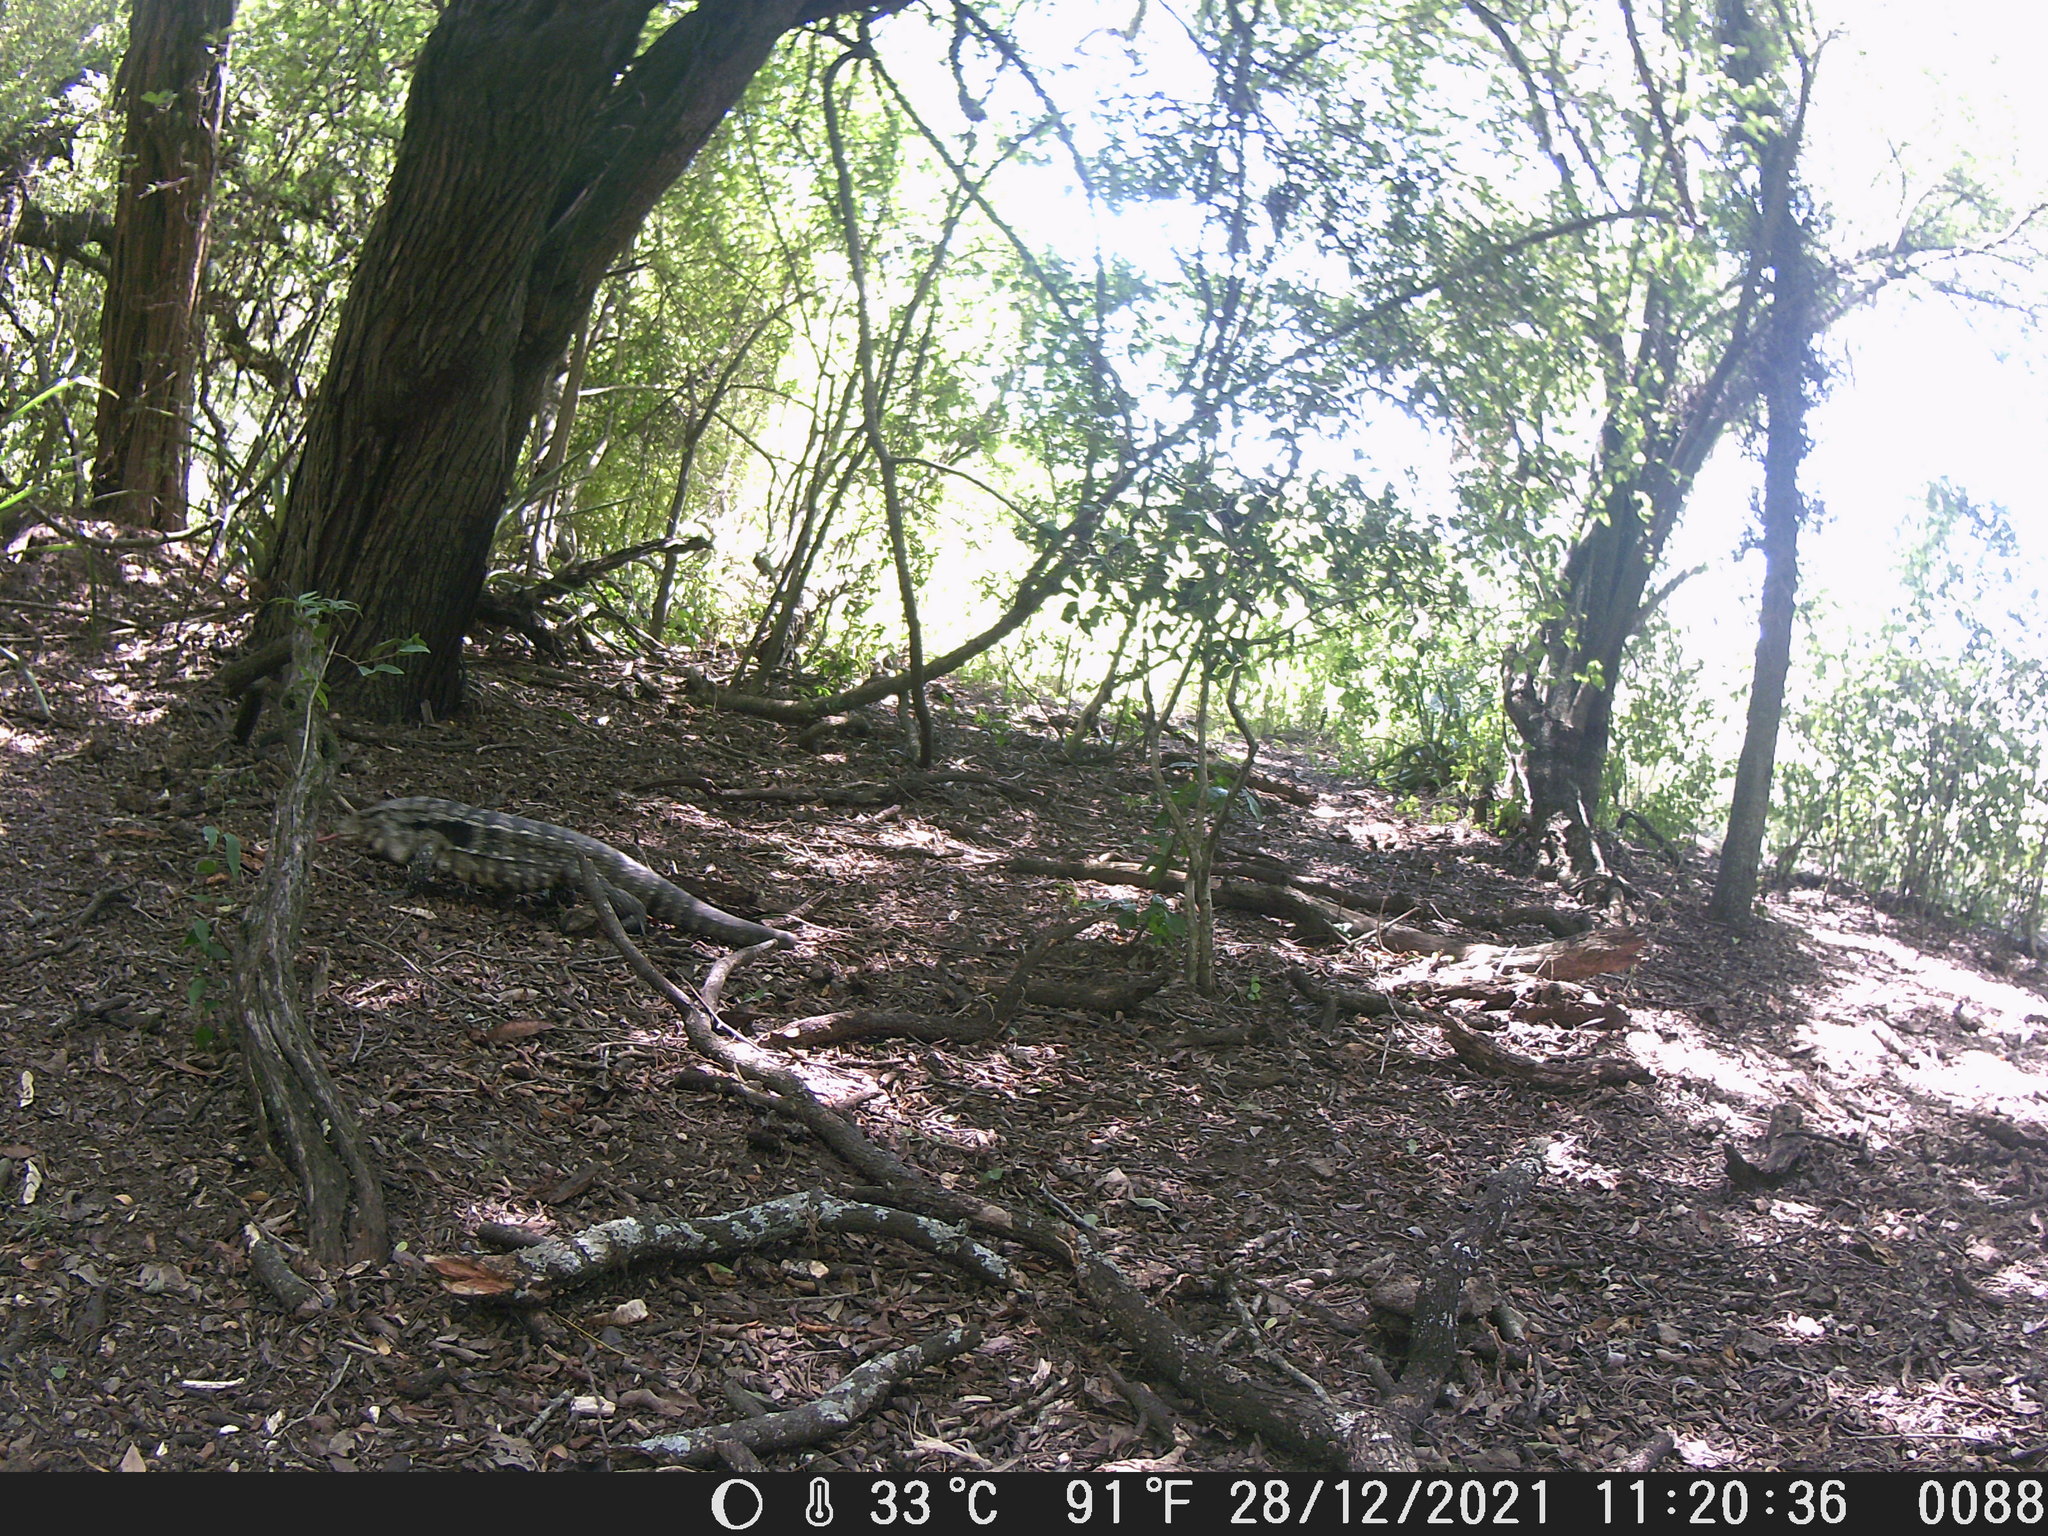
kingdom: Animalia
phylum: Chordata
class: Squamata
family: Teiidae
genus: Salvator
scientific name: Salvator merianae
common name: Argentine black and white tegu
